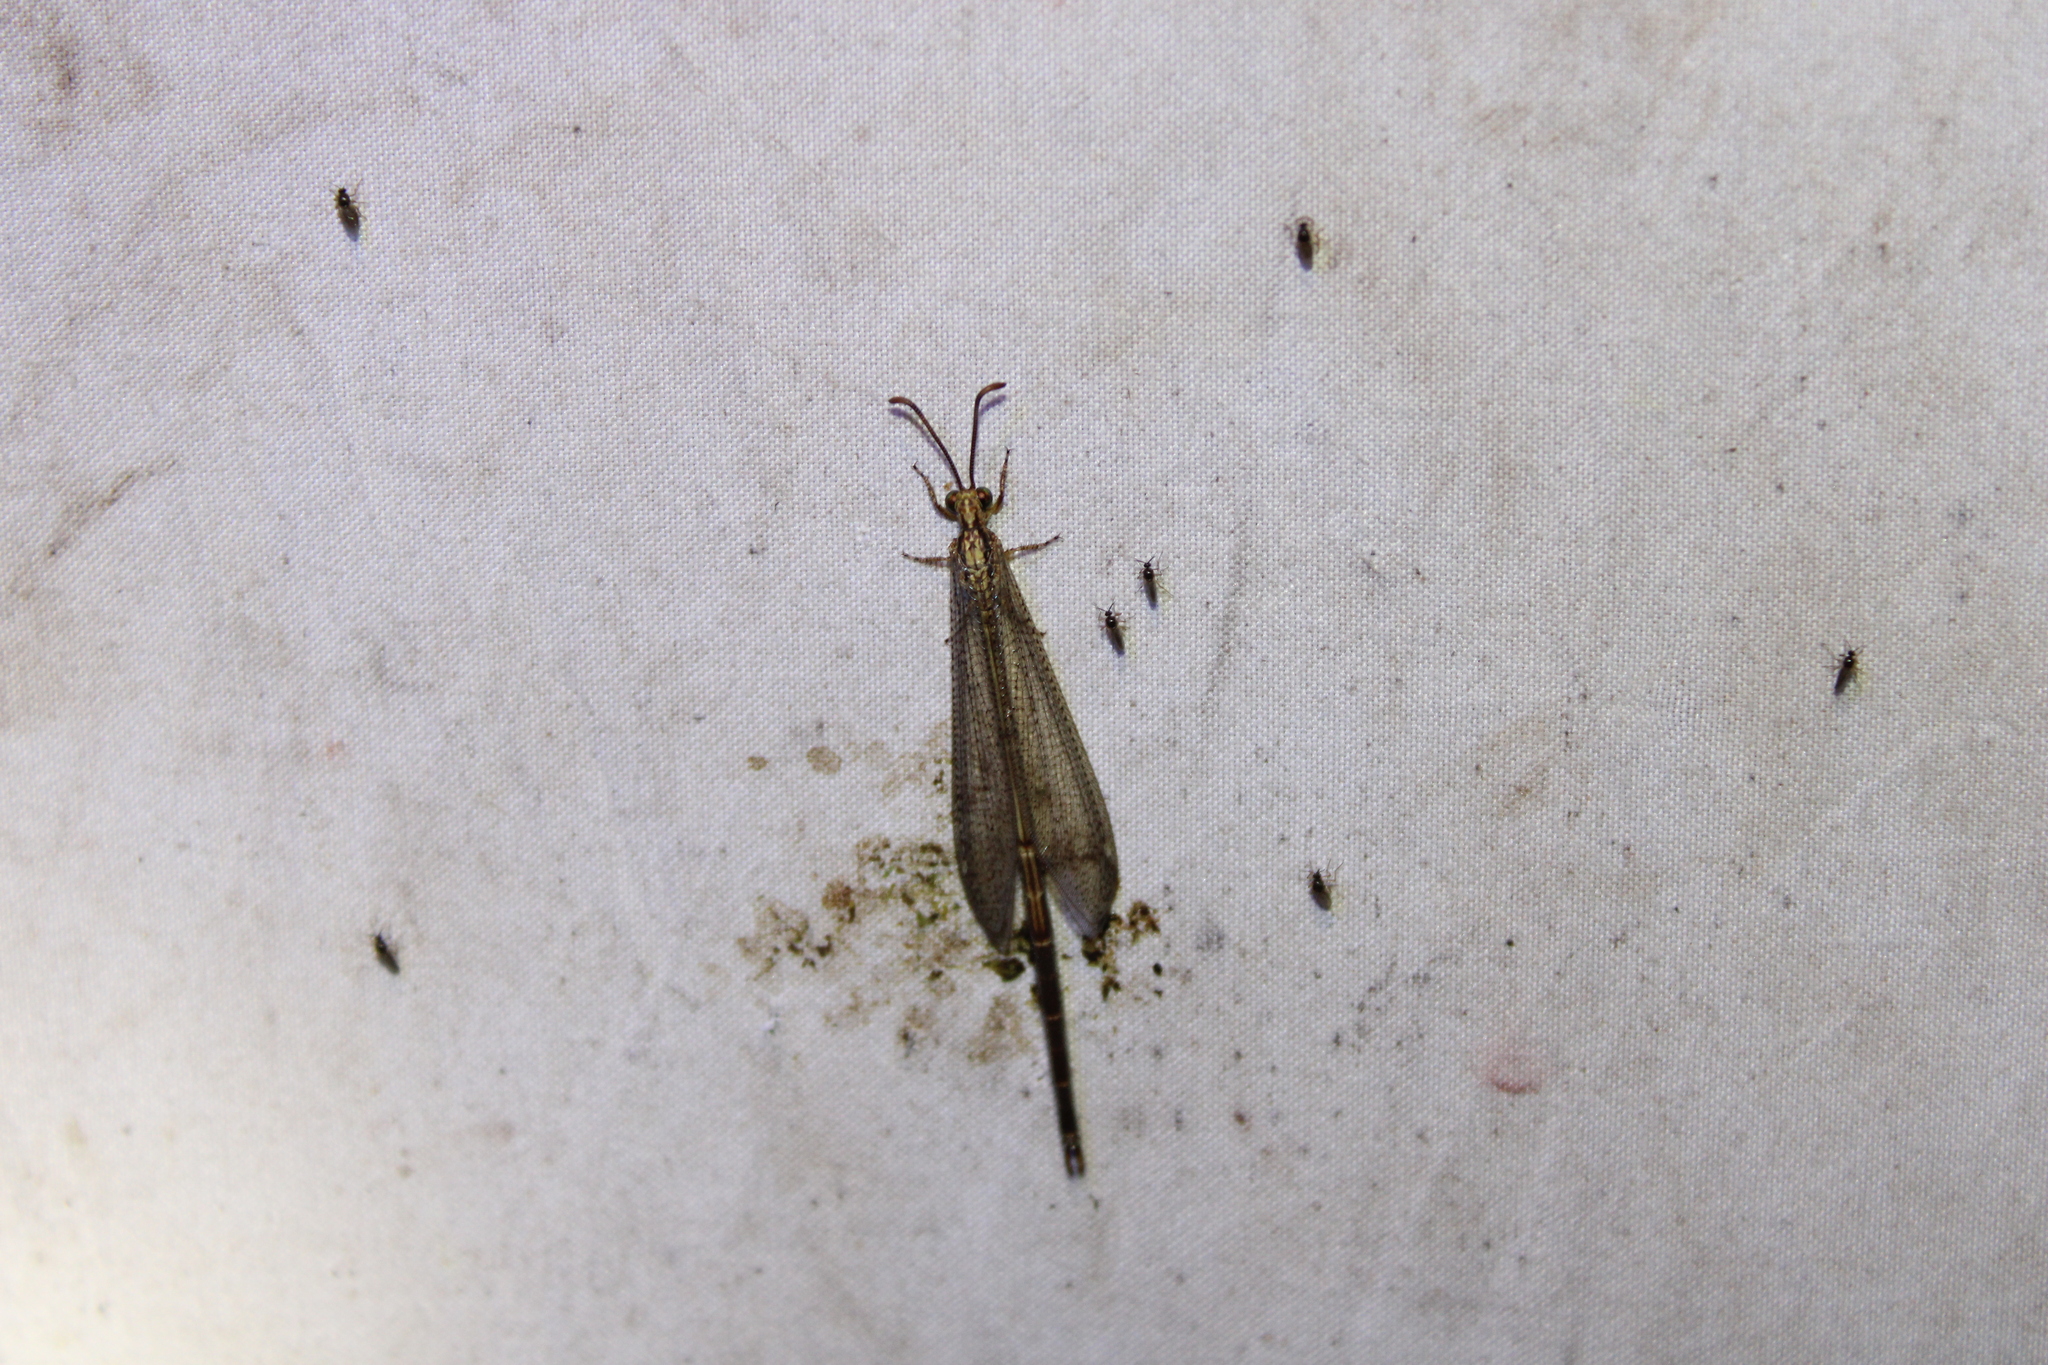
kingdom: Animalia
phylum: Arthropoda
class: Insecta
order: Neuroptera
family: Myrmeleontidae
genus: Brachynemurus
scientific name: Brachynemurus abdominalis
